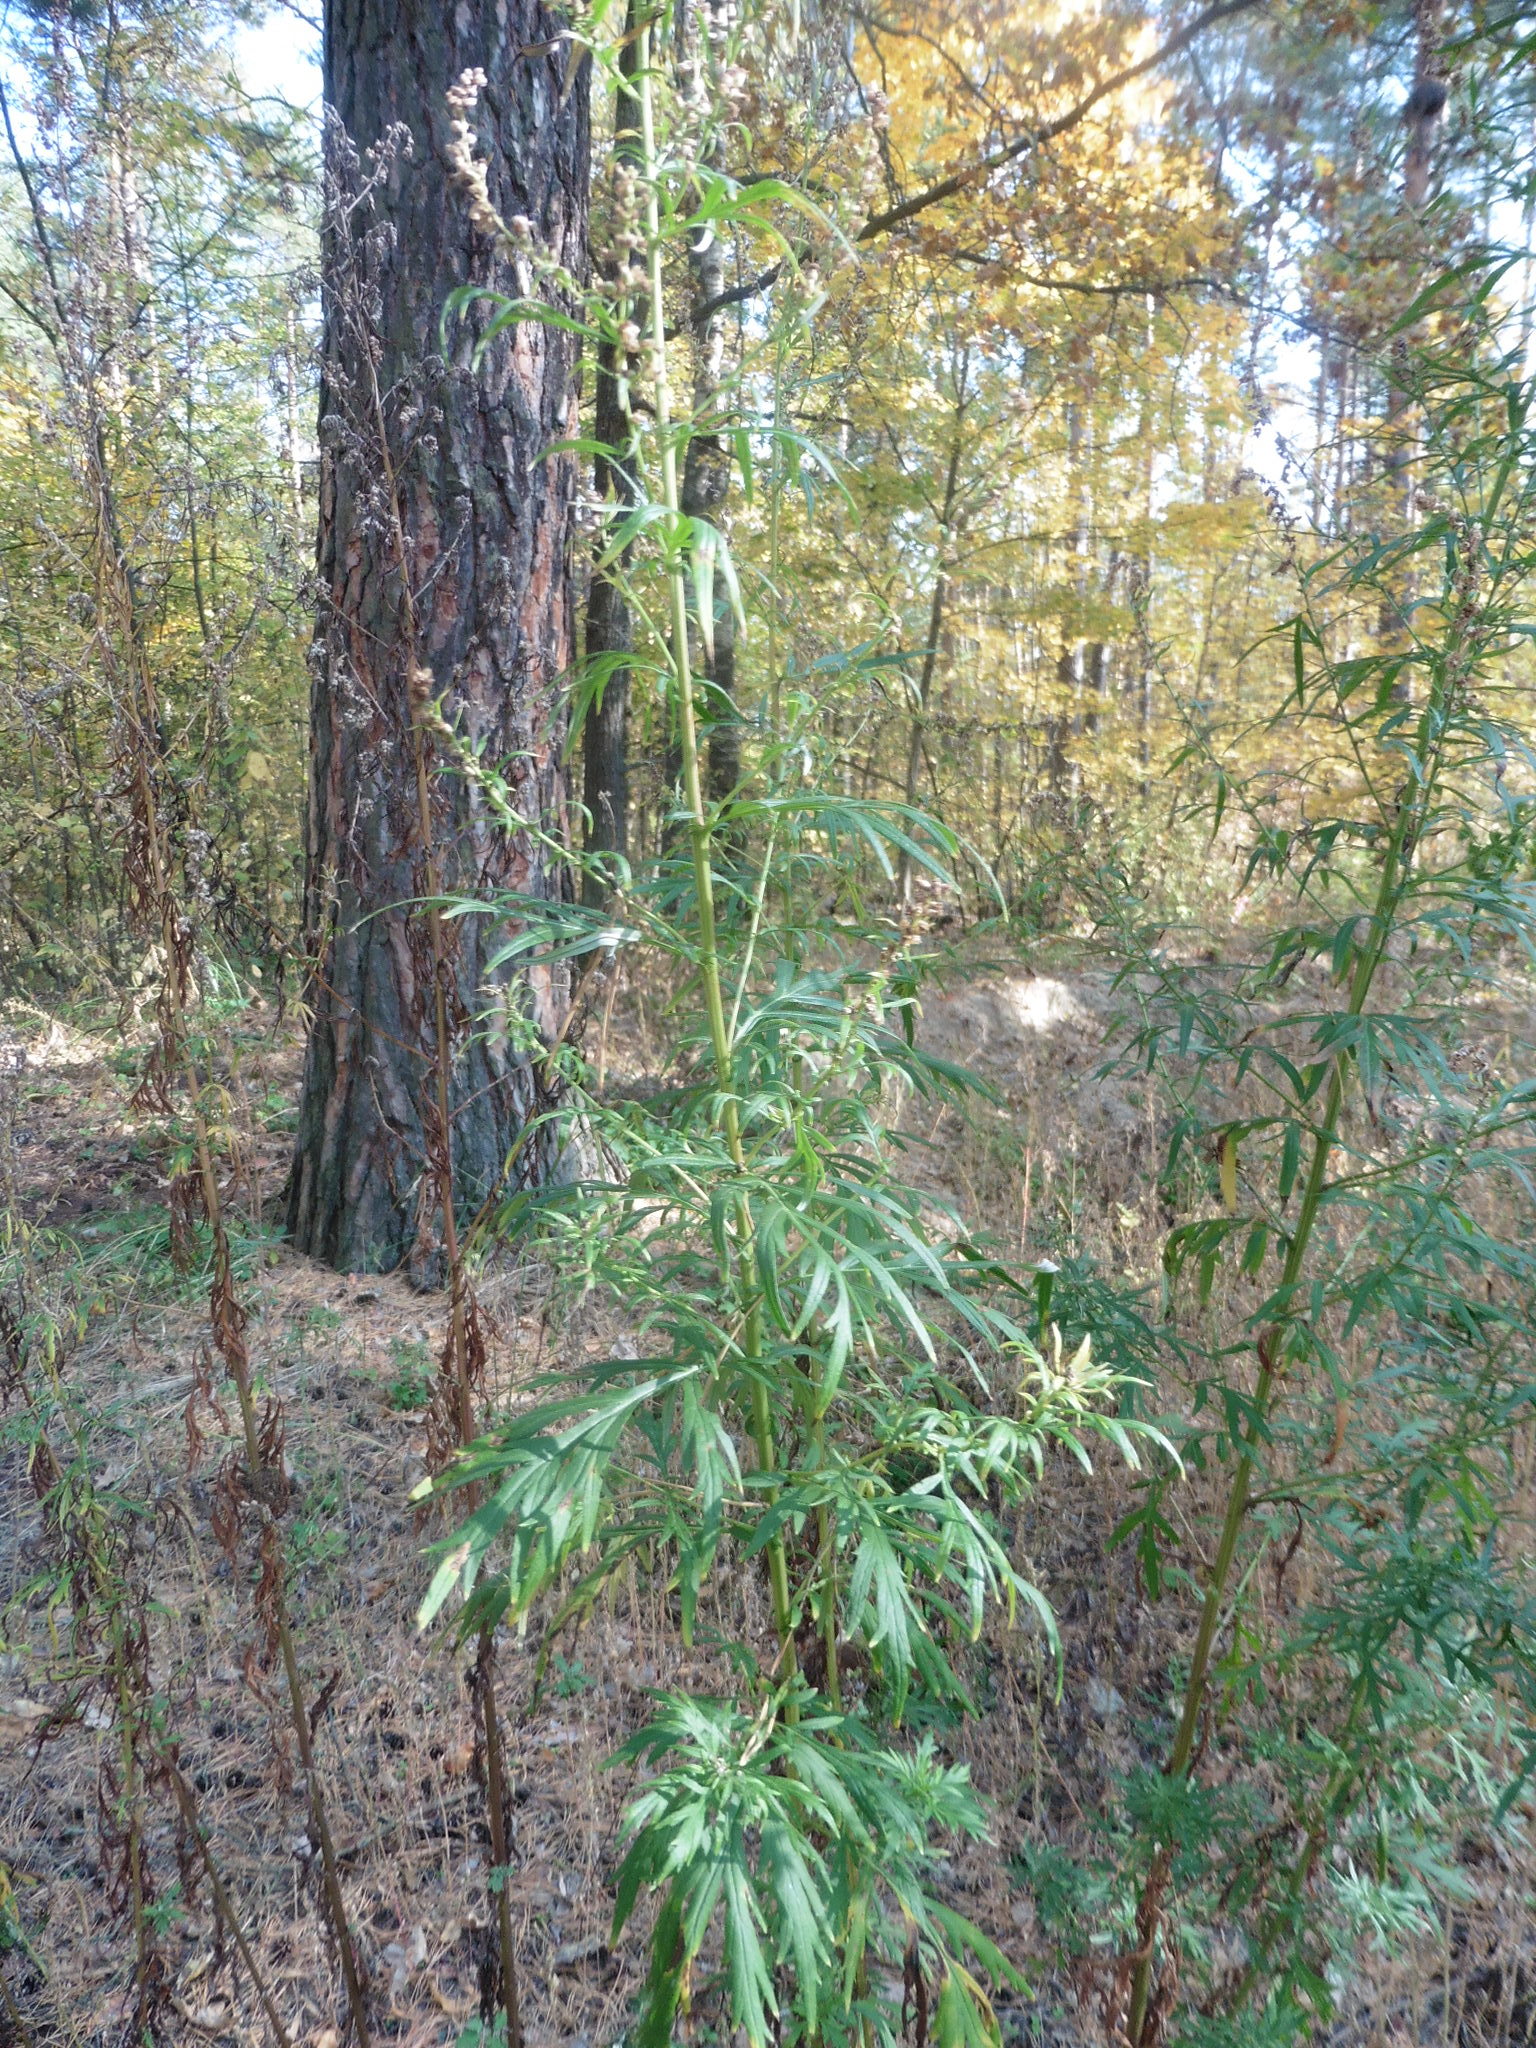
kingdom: Plantae
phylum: Tracheophyta
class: Magnoliopsida
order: Asterales
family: Asteraceae
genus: Artemisia
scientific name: Artemisia vulgaris
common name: Mugwort
